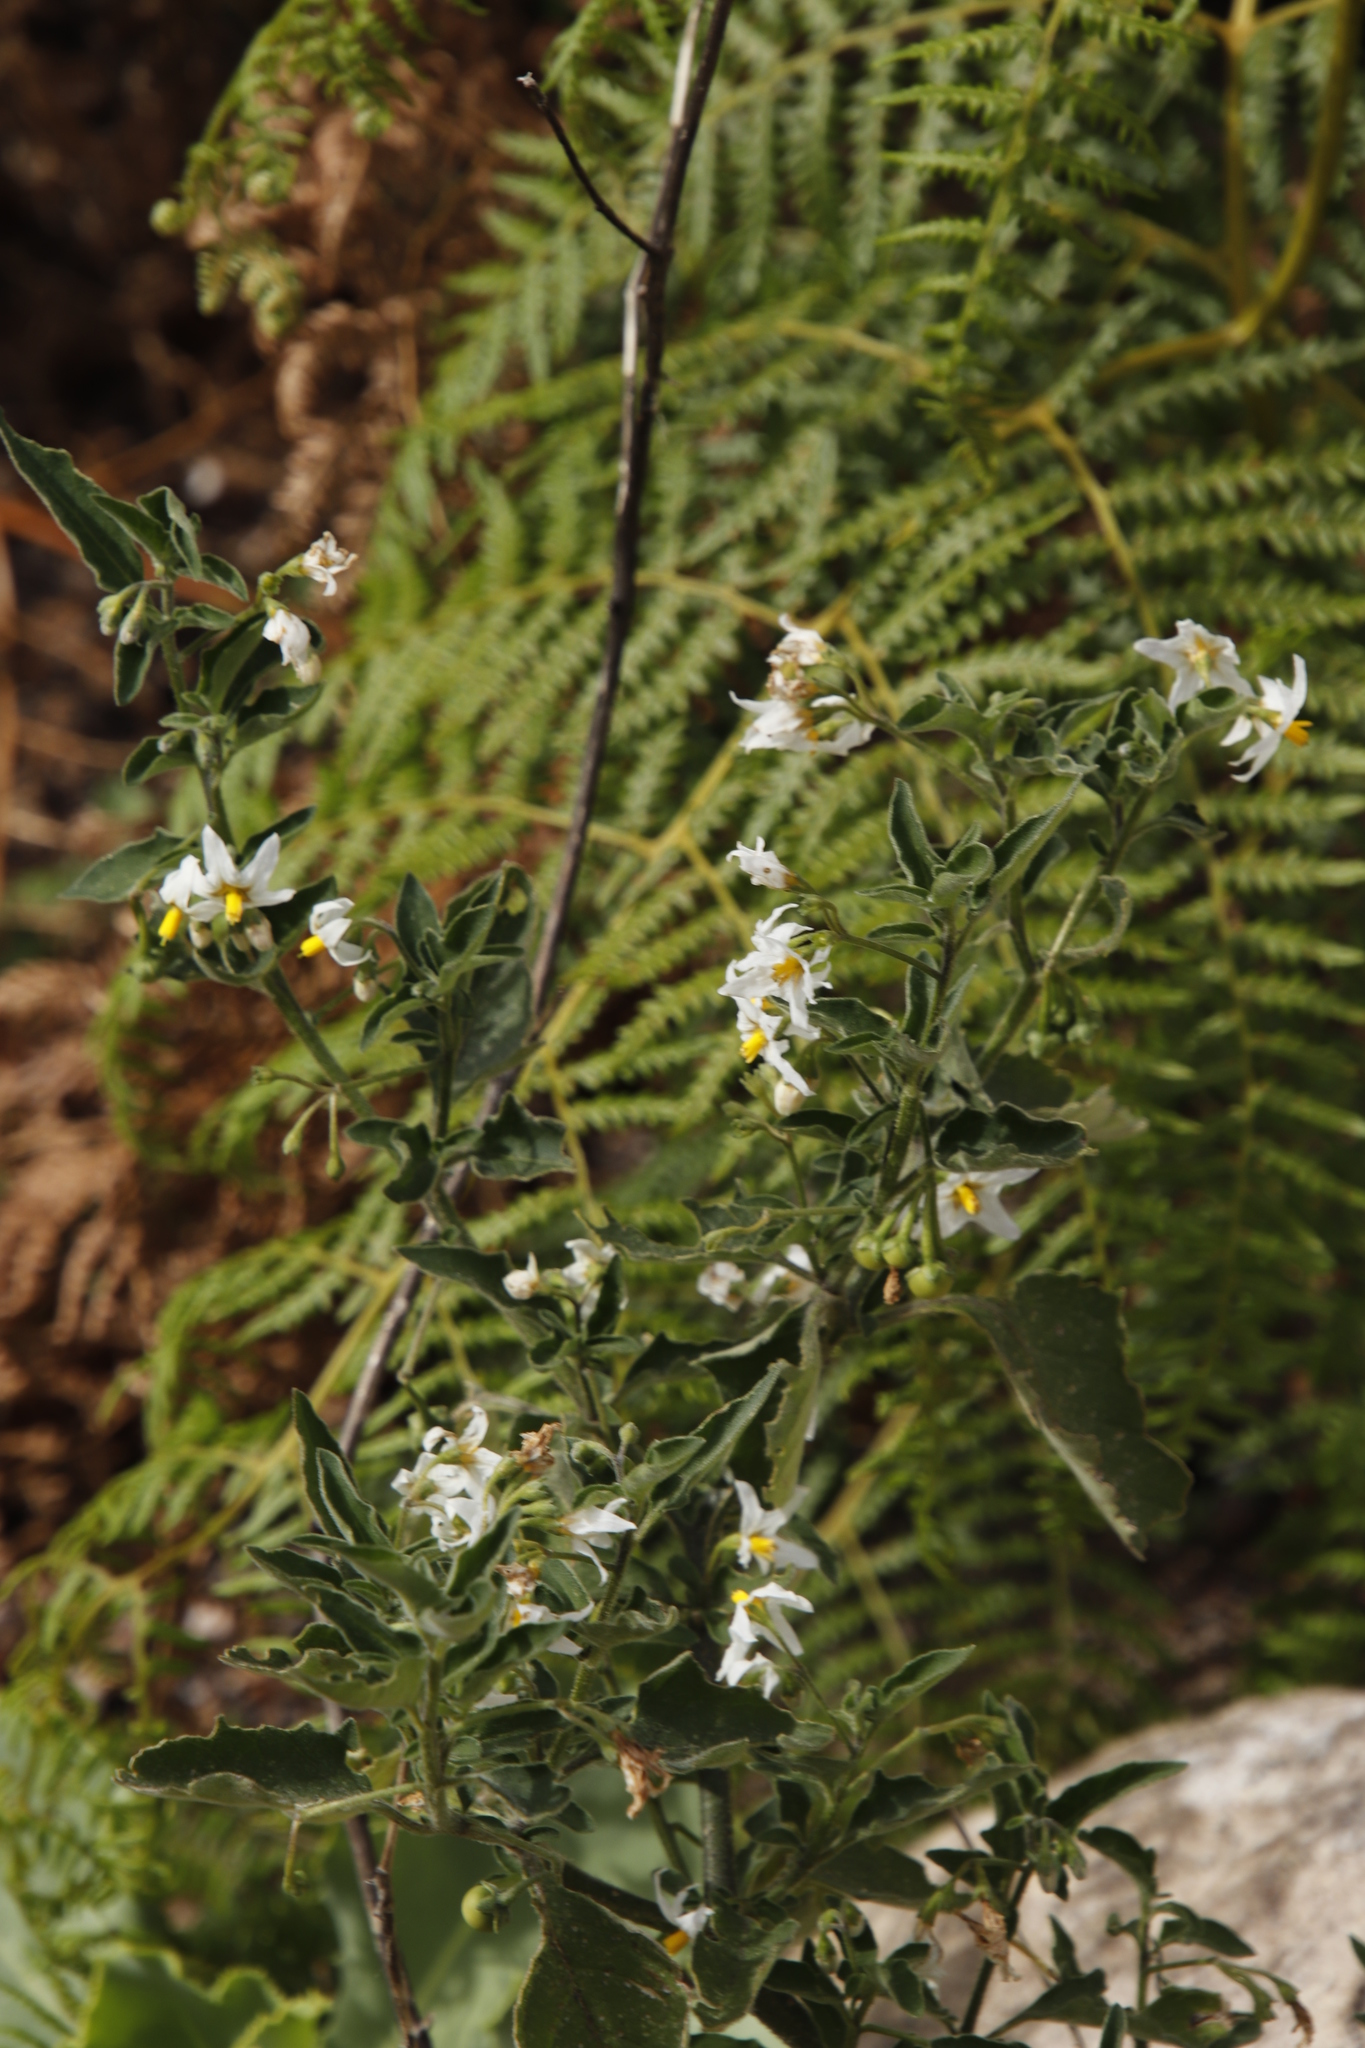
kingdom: Plantae
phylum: Tracheophyta
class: Magnoliopsida
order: Solanales
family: Solanaceae
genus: Solanum
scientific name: Solanum chenopodioides
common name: Tall nightshade
